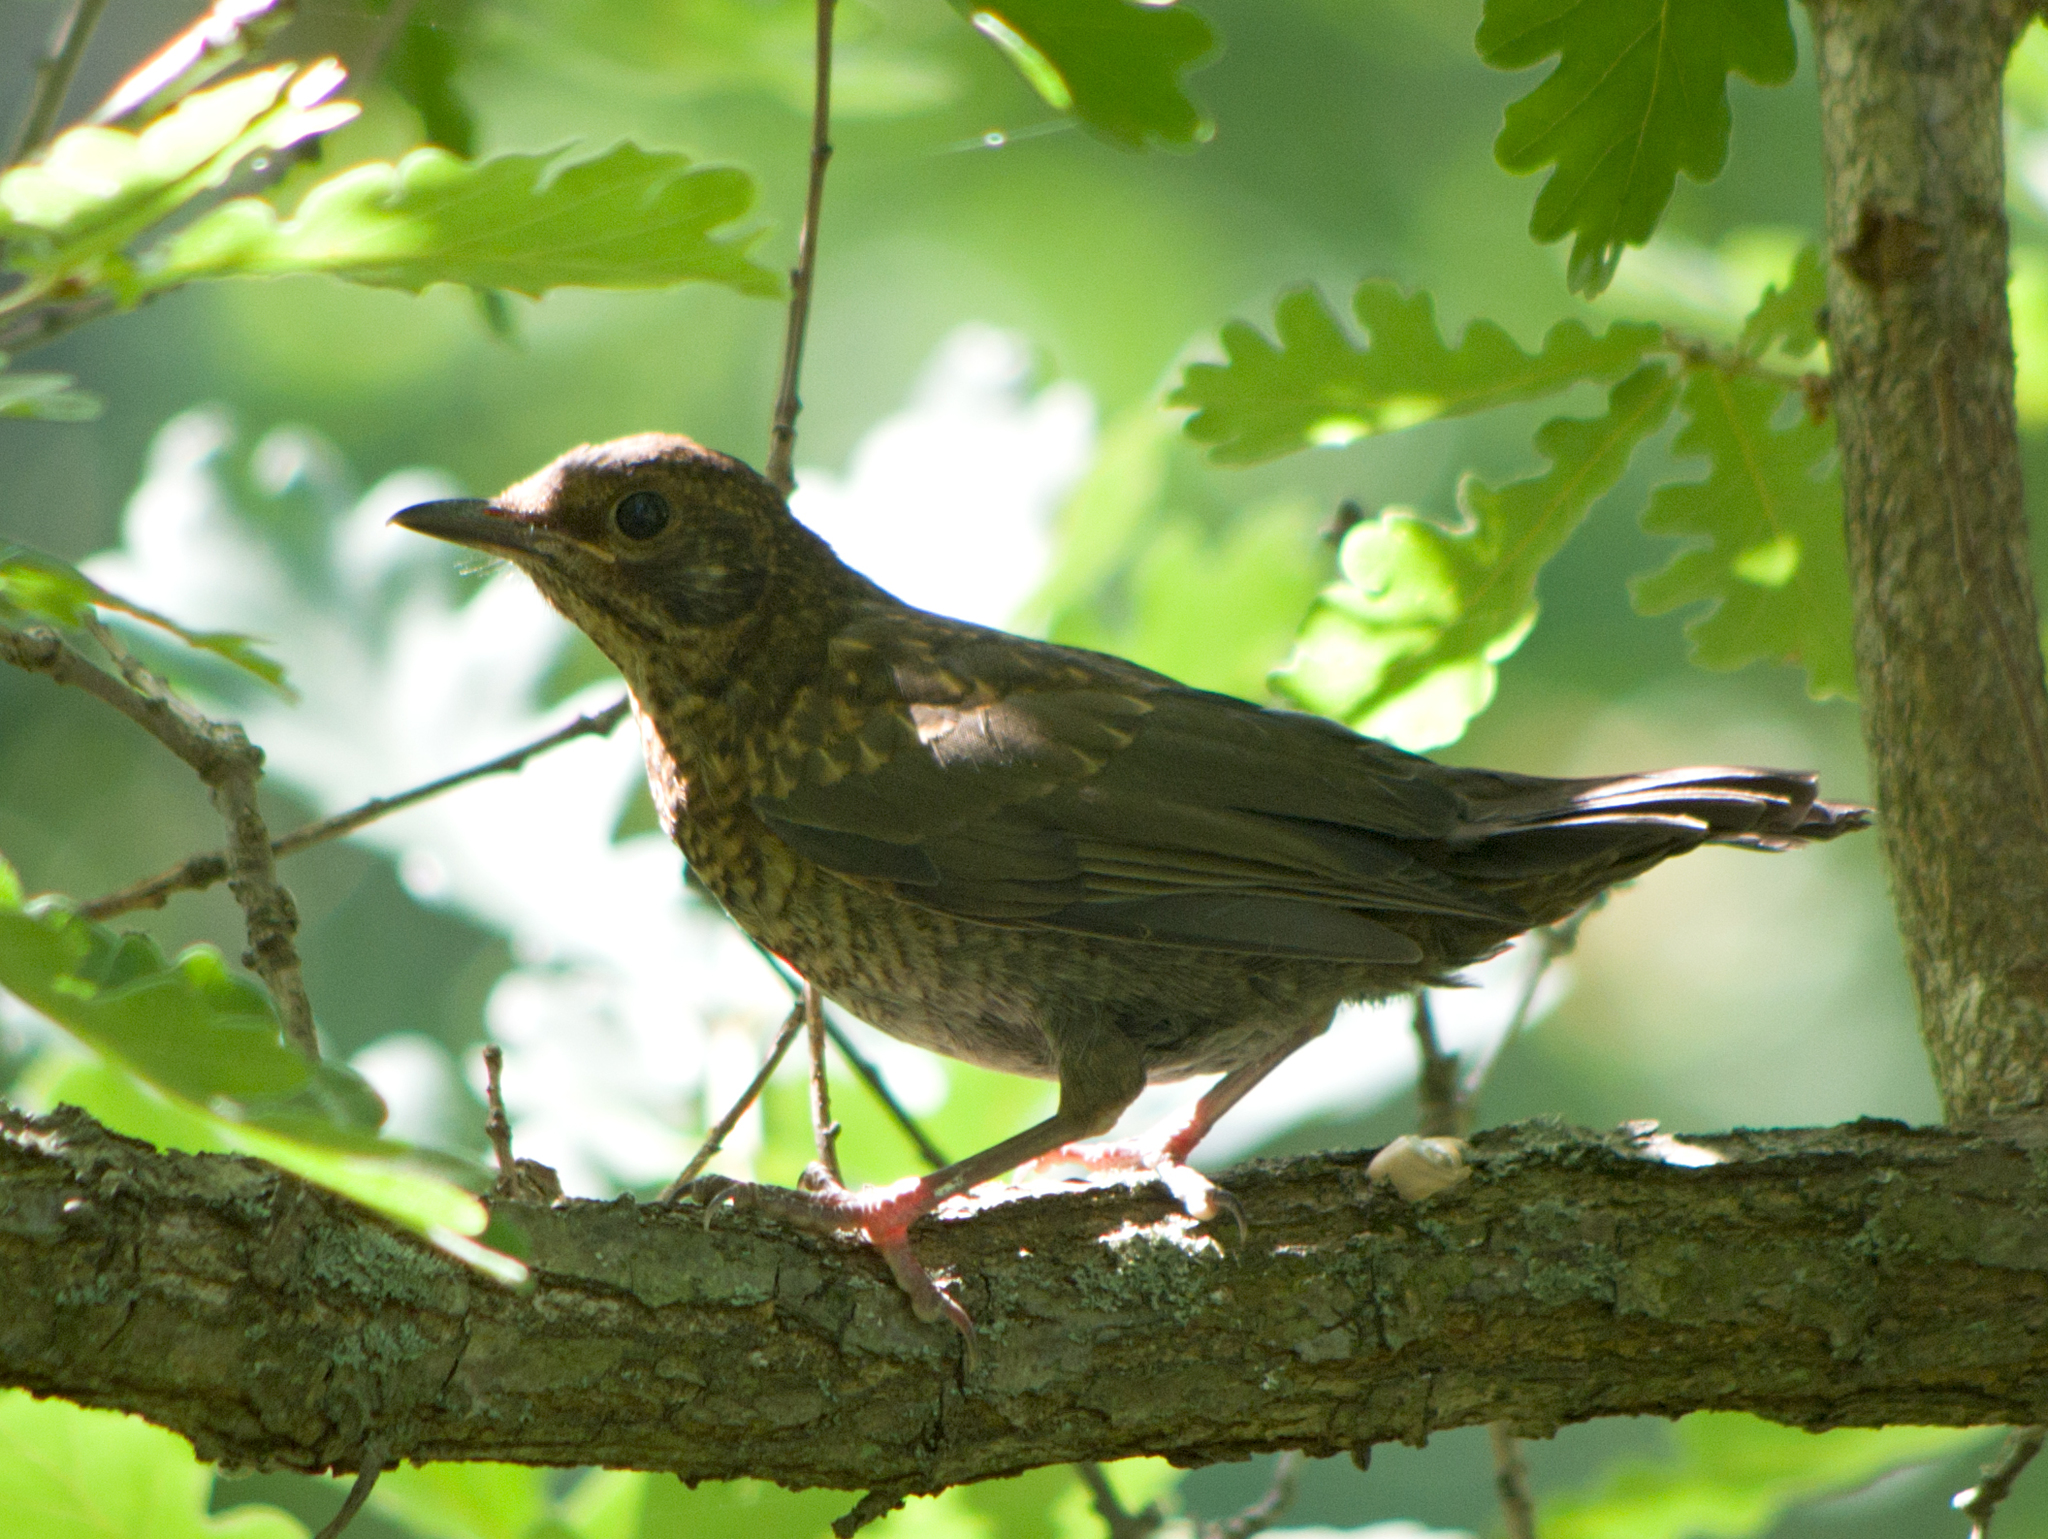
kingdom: Animalia
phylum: Chordata
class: Aves
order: Passeriformes
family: Turdidae
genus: Turdus
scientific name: Turdus merula
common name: Common blackbird
